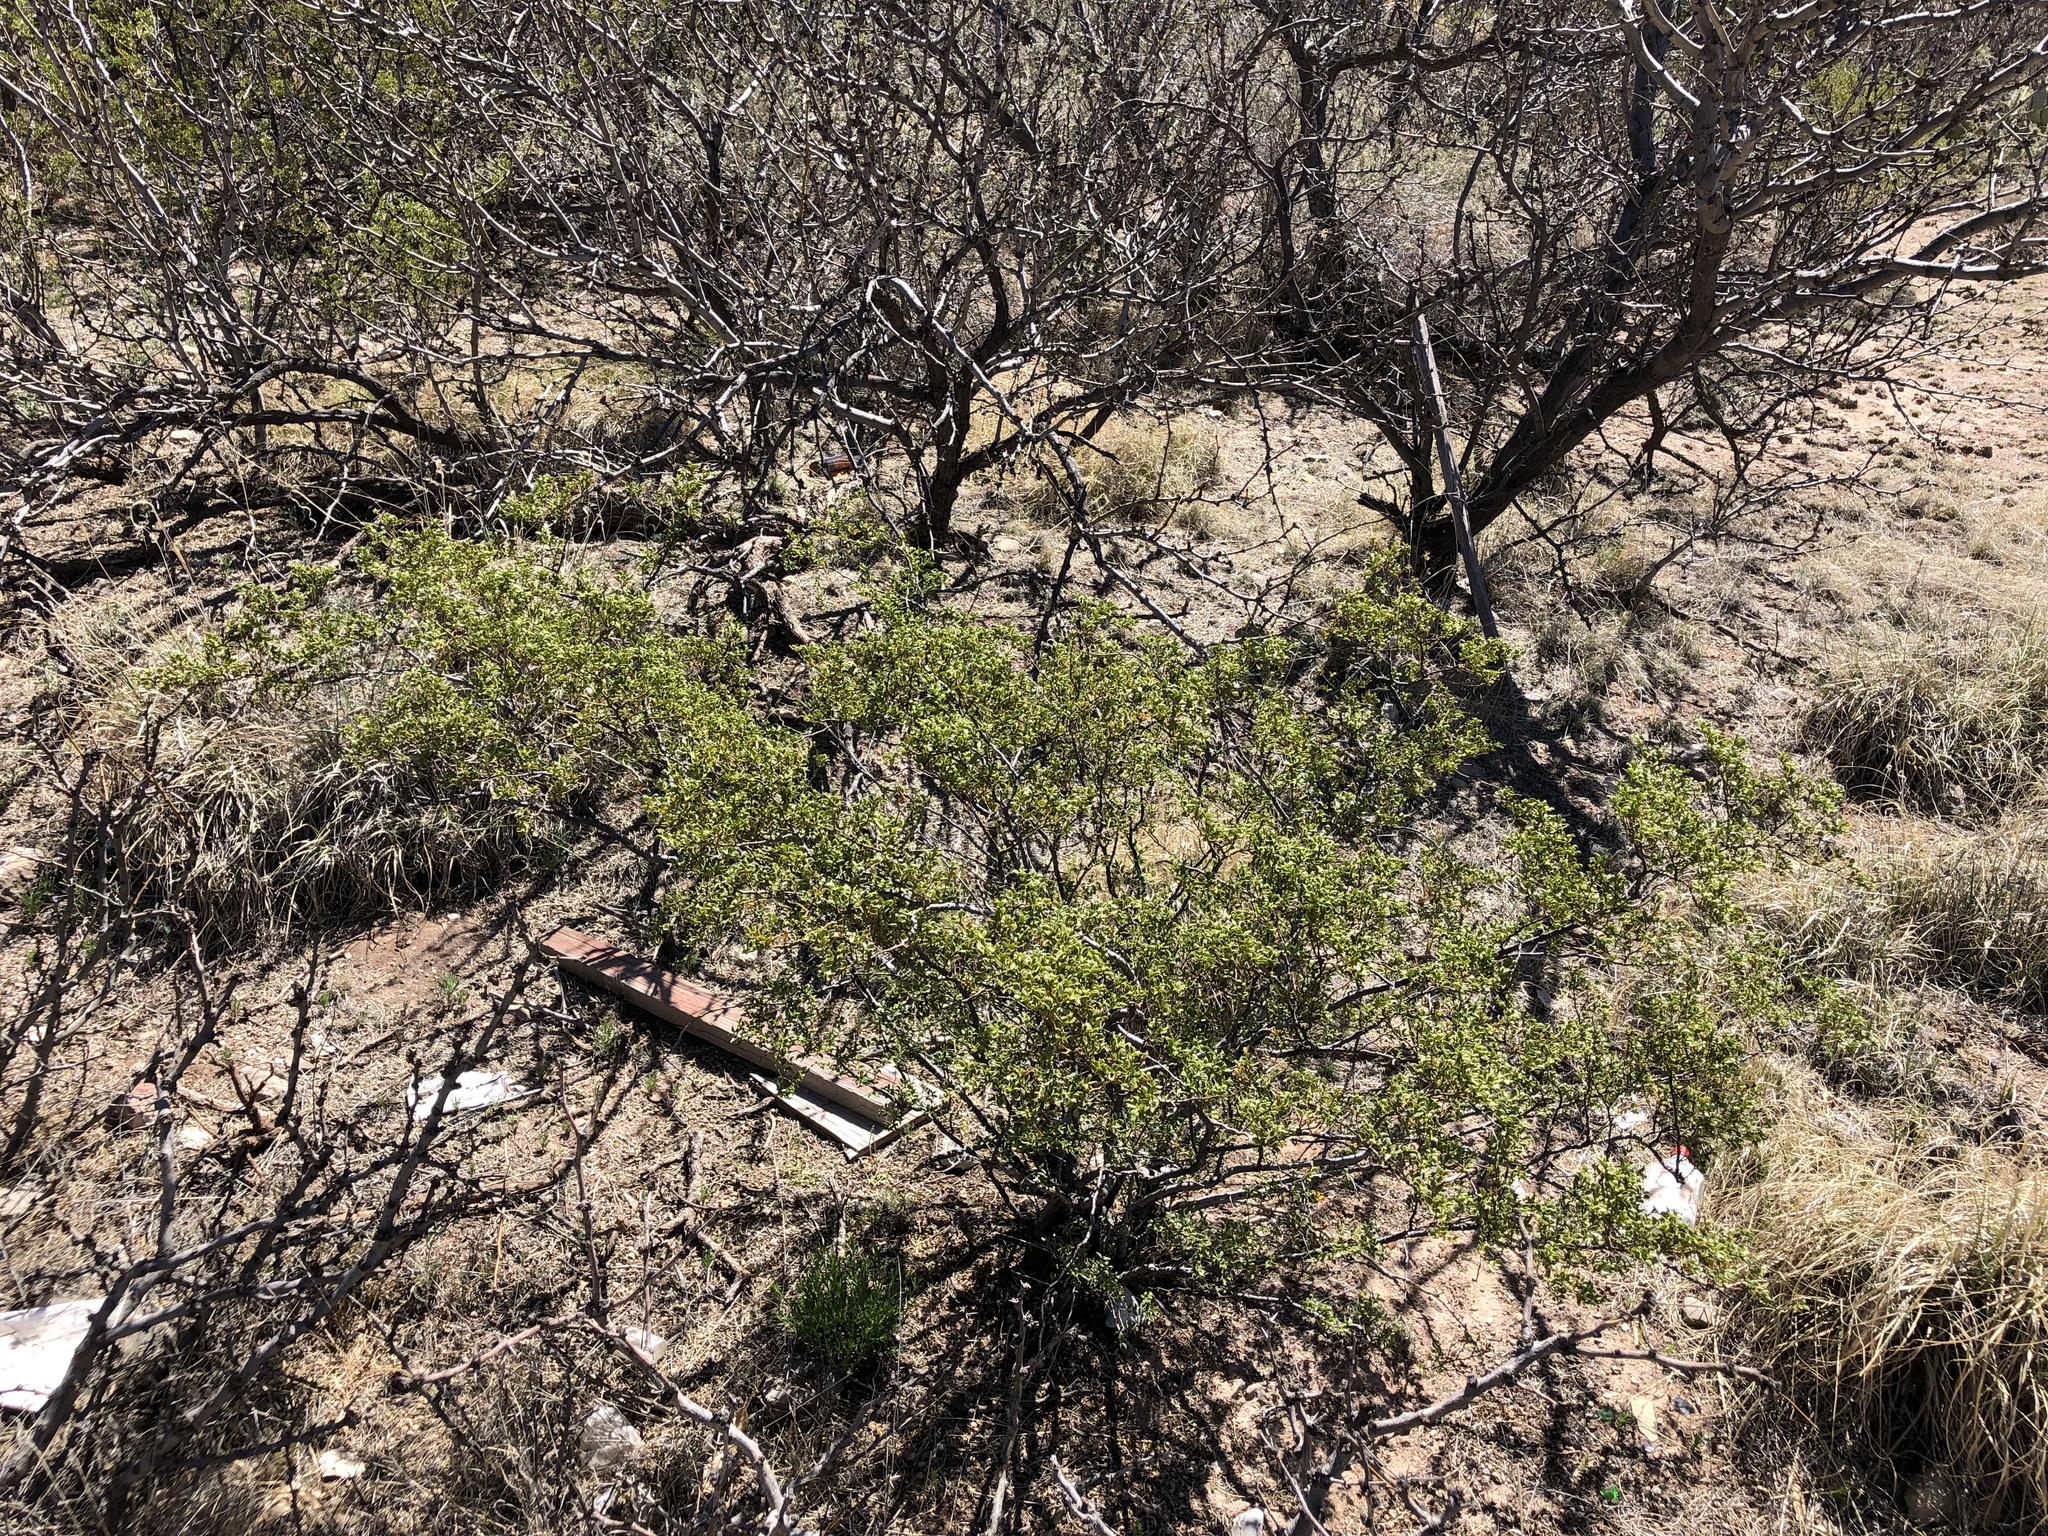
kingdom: Plantae
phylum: Tracheophyta
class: Magnoliopsida
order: Zygophyllales
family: Zygophyllaceae
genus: Larrea
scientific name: Larrea tridentata
